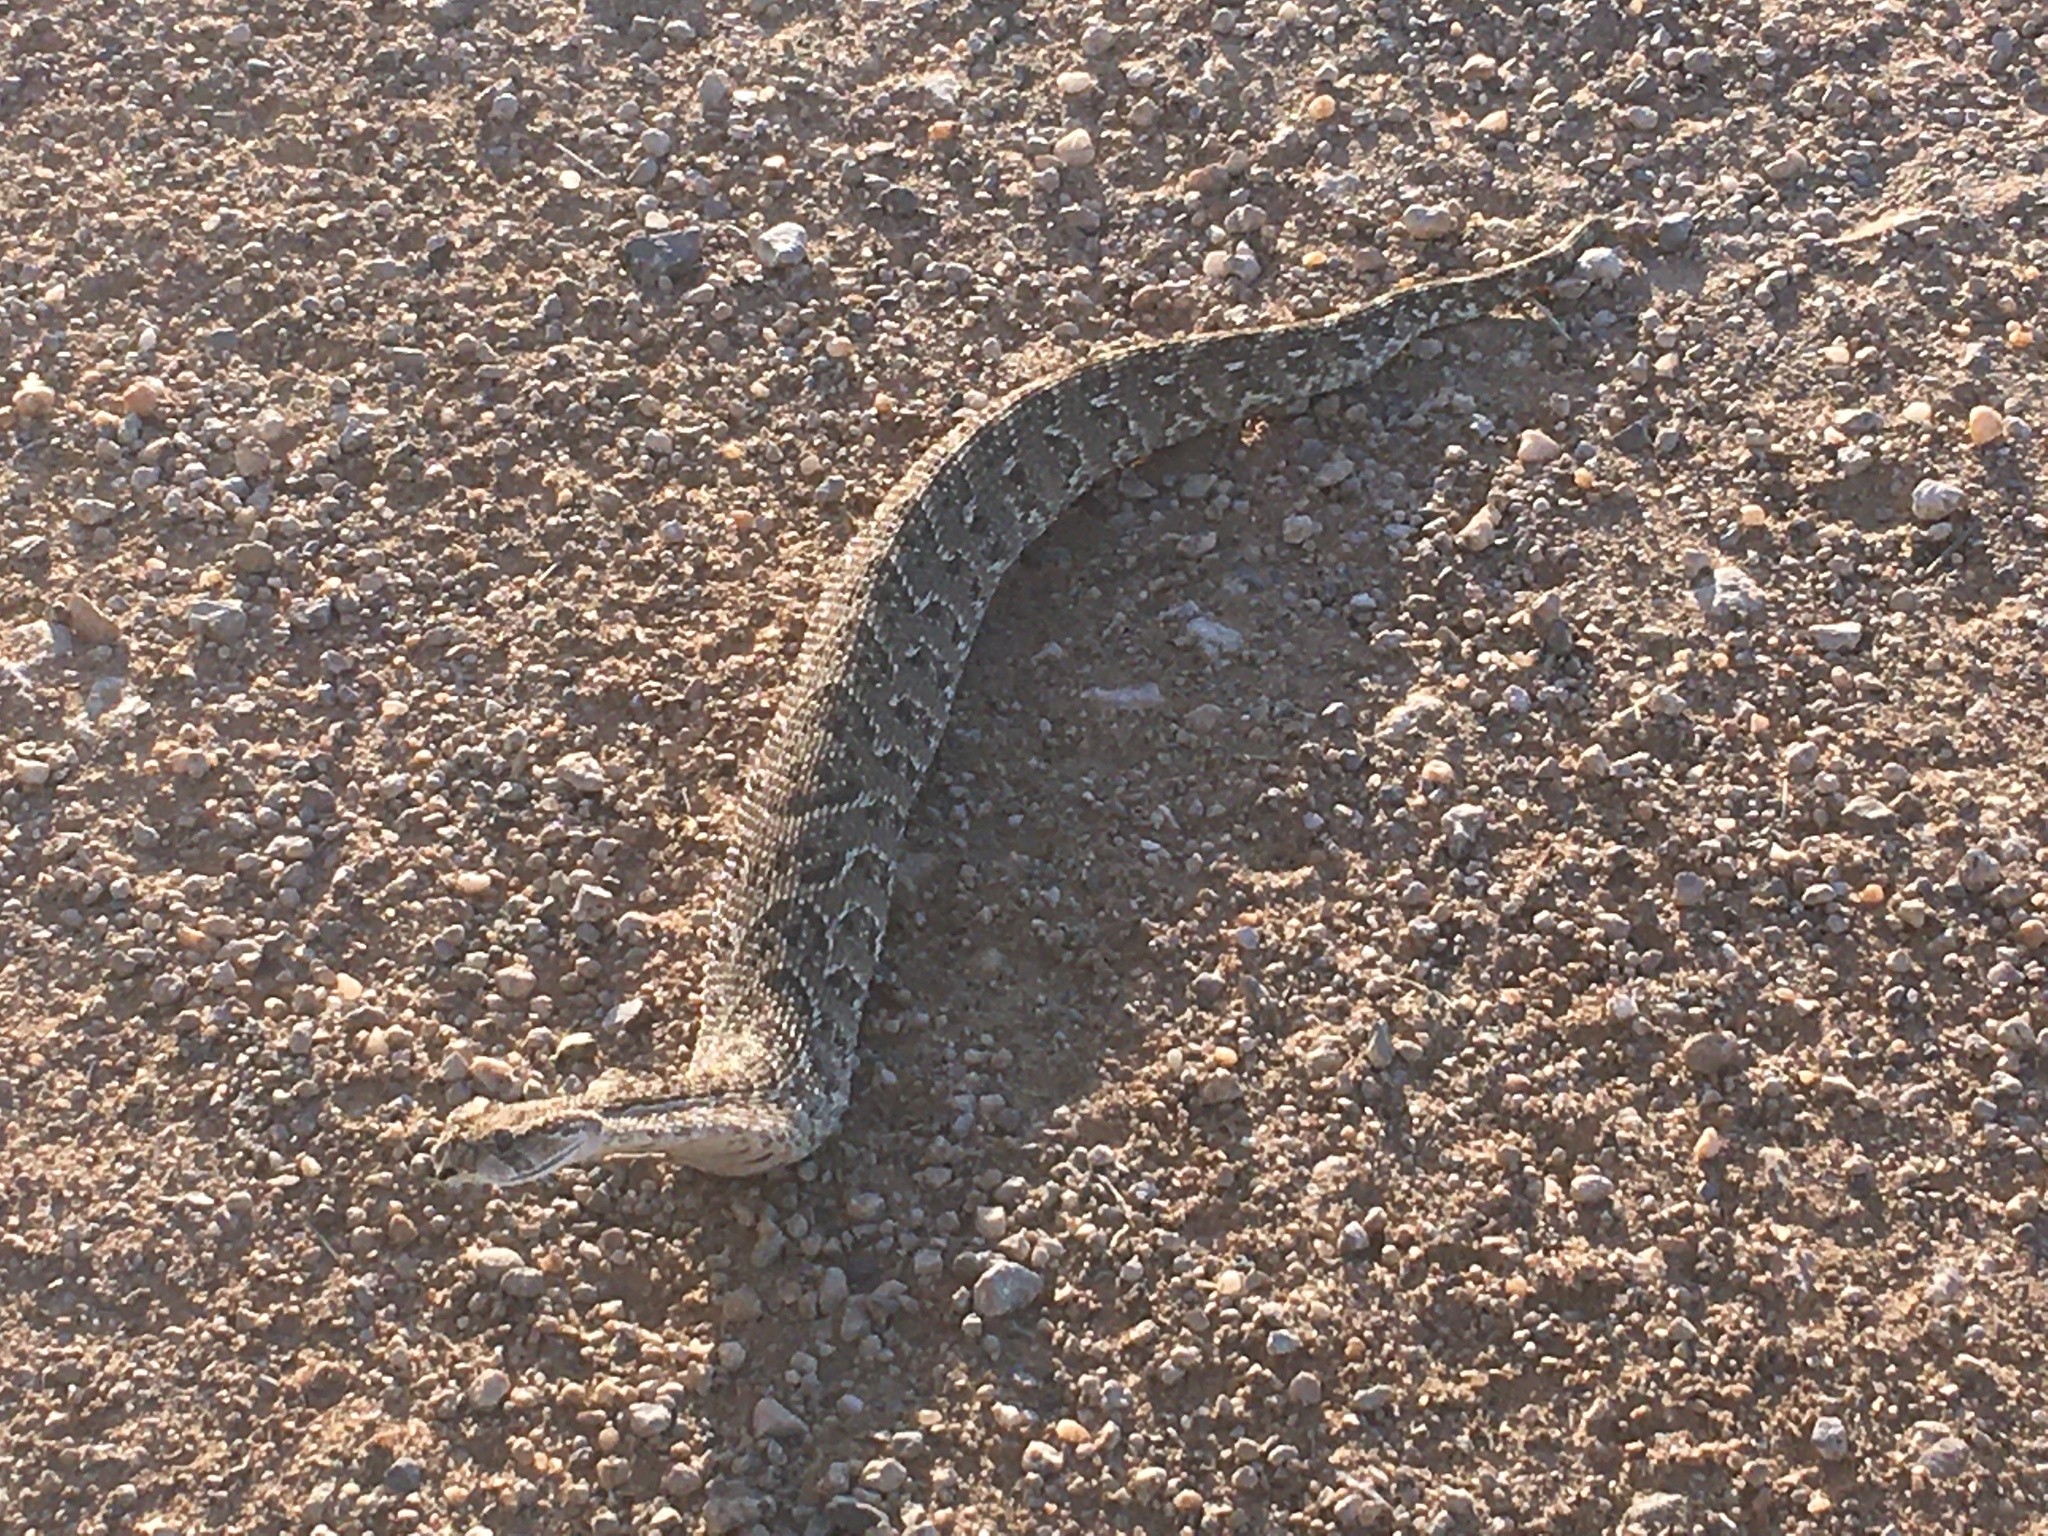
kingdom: Animalia
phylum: Chordata
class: Squamata
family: Viperidae
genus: Bitis
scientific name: Bitis arietans
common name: Puff adder
